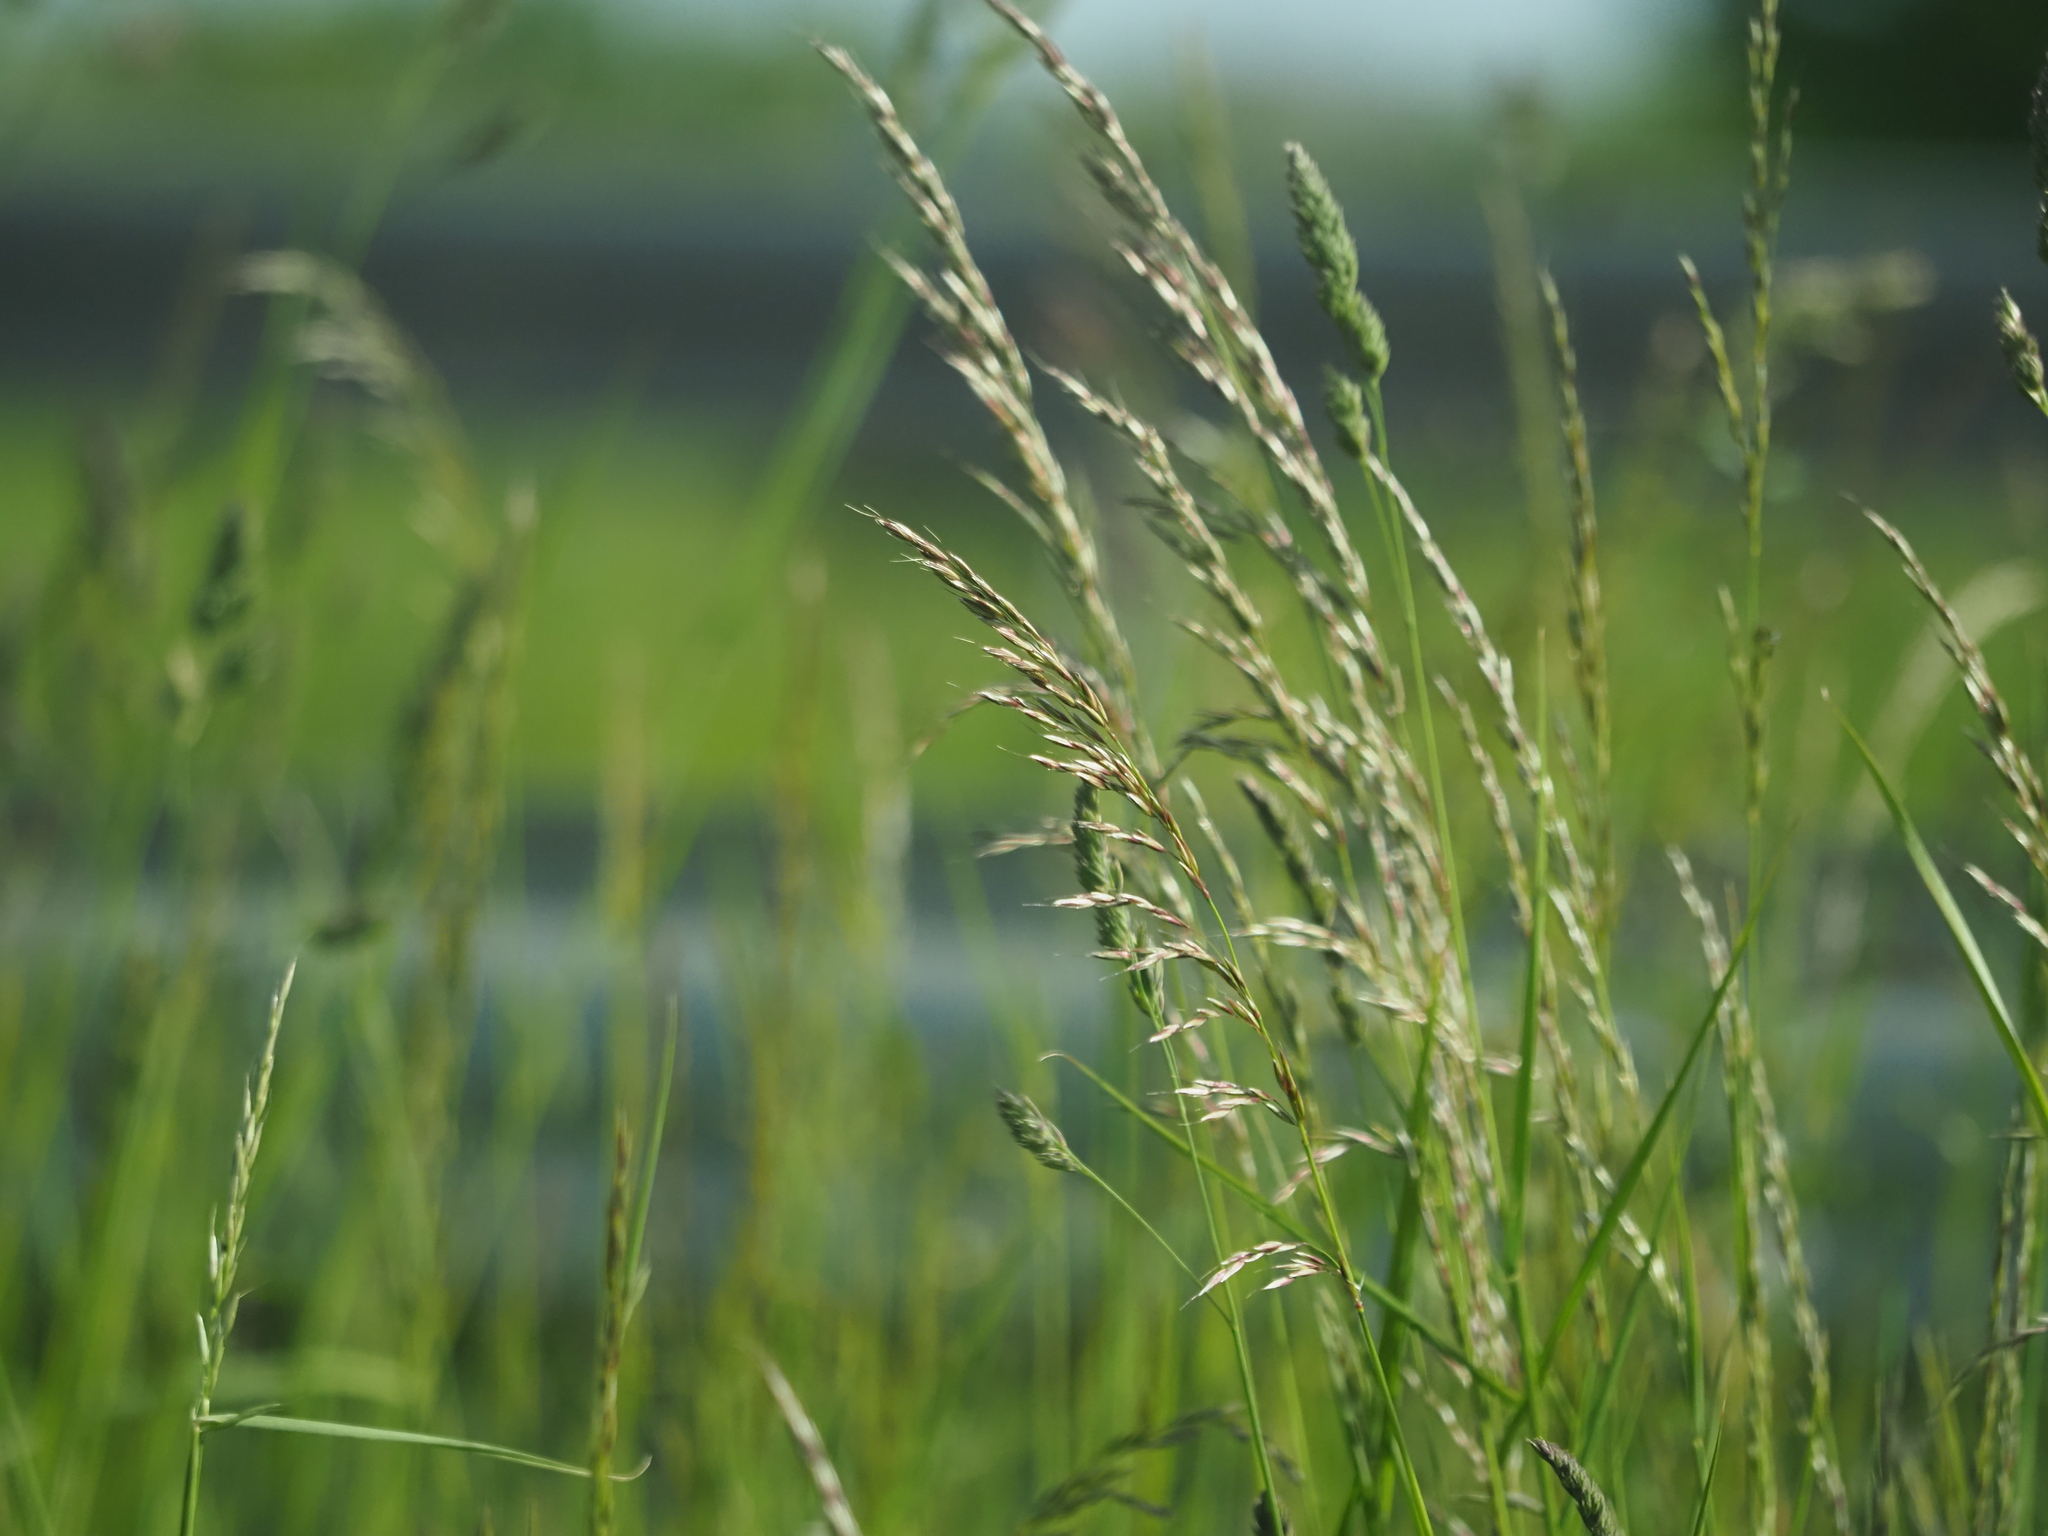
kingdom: Plantae
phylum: Tracheophyta
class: Liliopsida
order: Poales
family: Poaceae
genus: Arrhenatherum
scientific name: Arrhenatherum elatius
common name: Tall oatgrass
